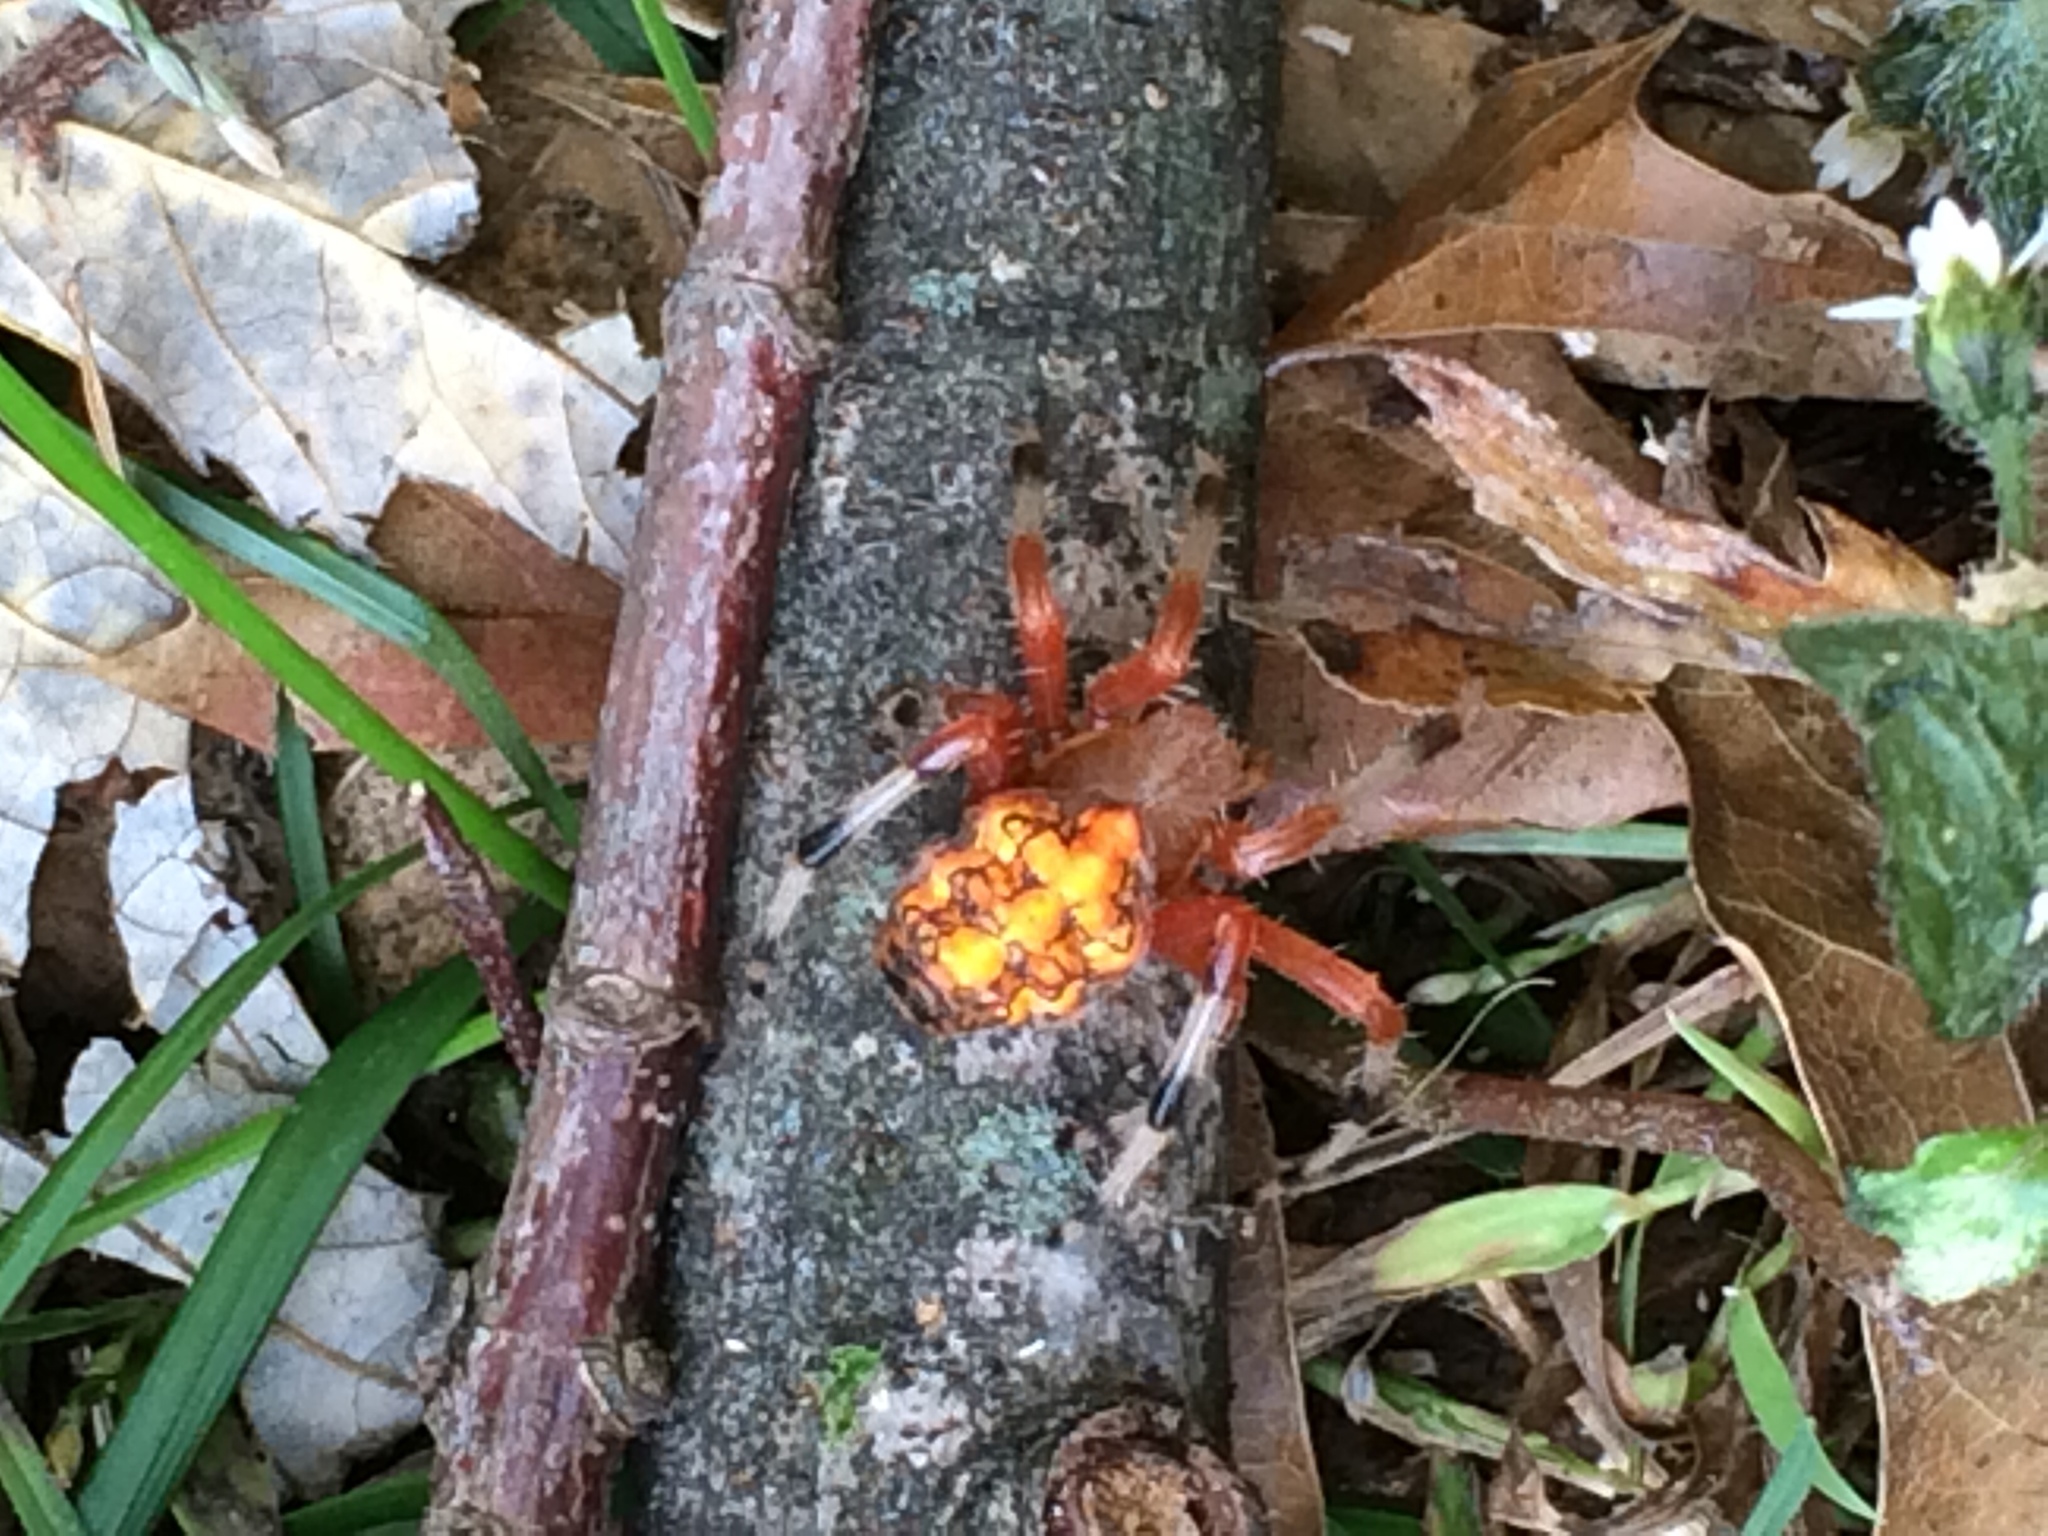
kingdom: Animalia
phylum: Arthropoda
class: Arachnida
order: Araneae
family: Araneidae
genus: Araneus
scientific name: Araneus marmoreus
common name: Marbled orbweaver
